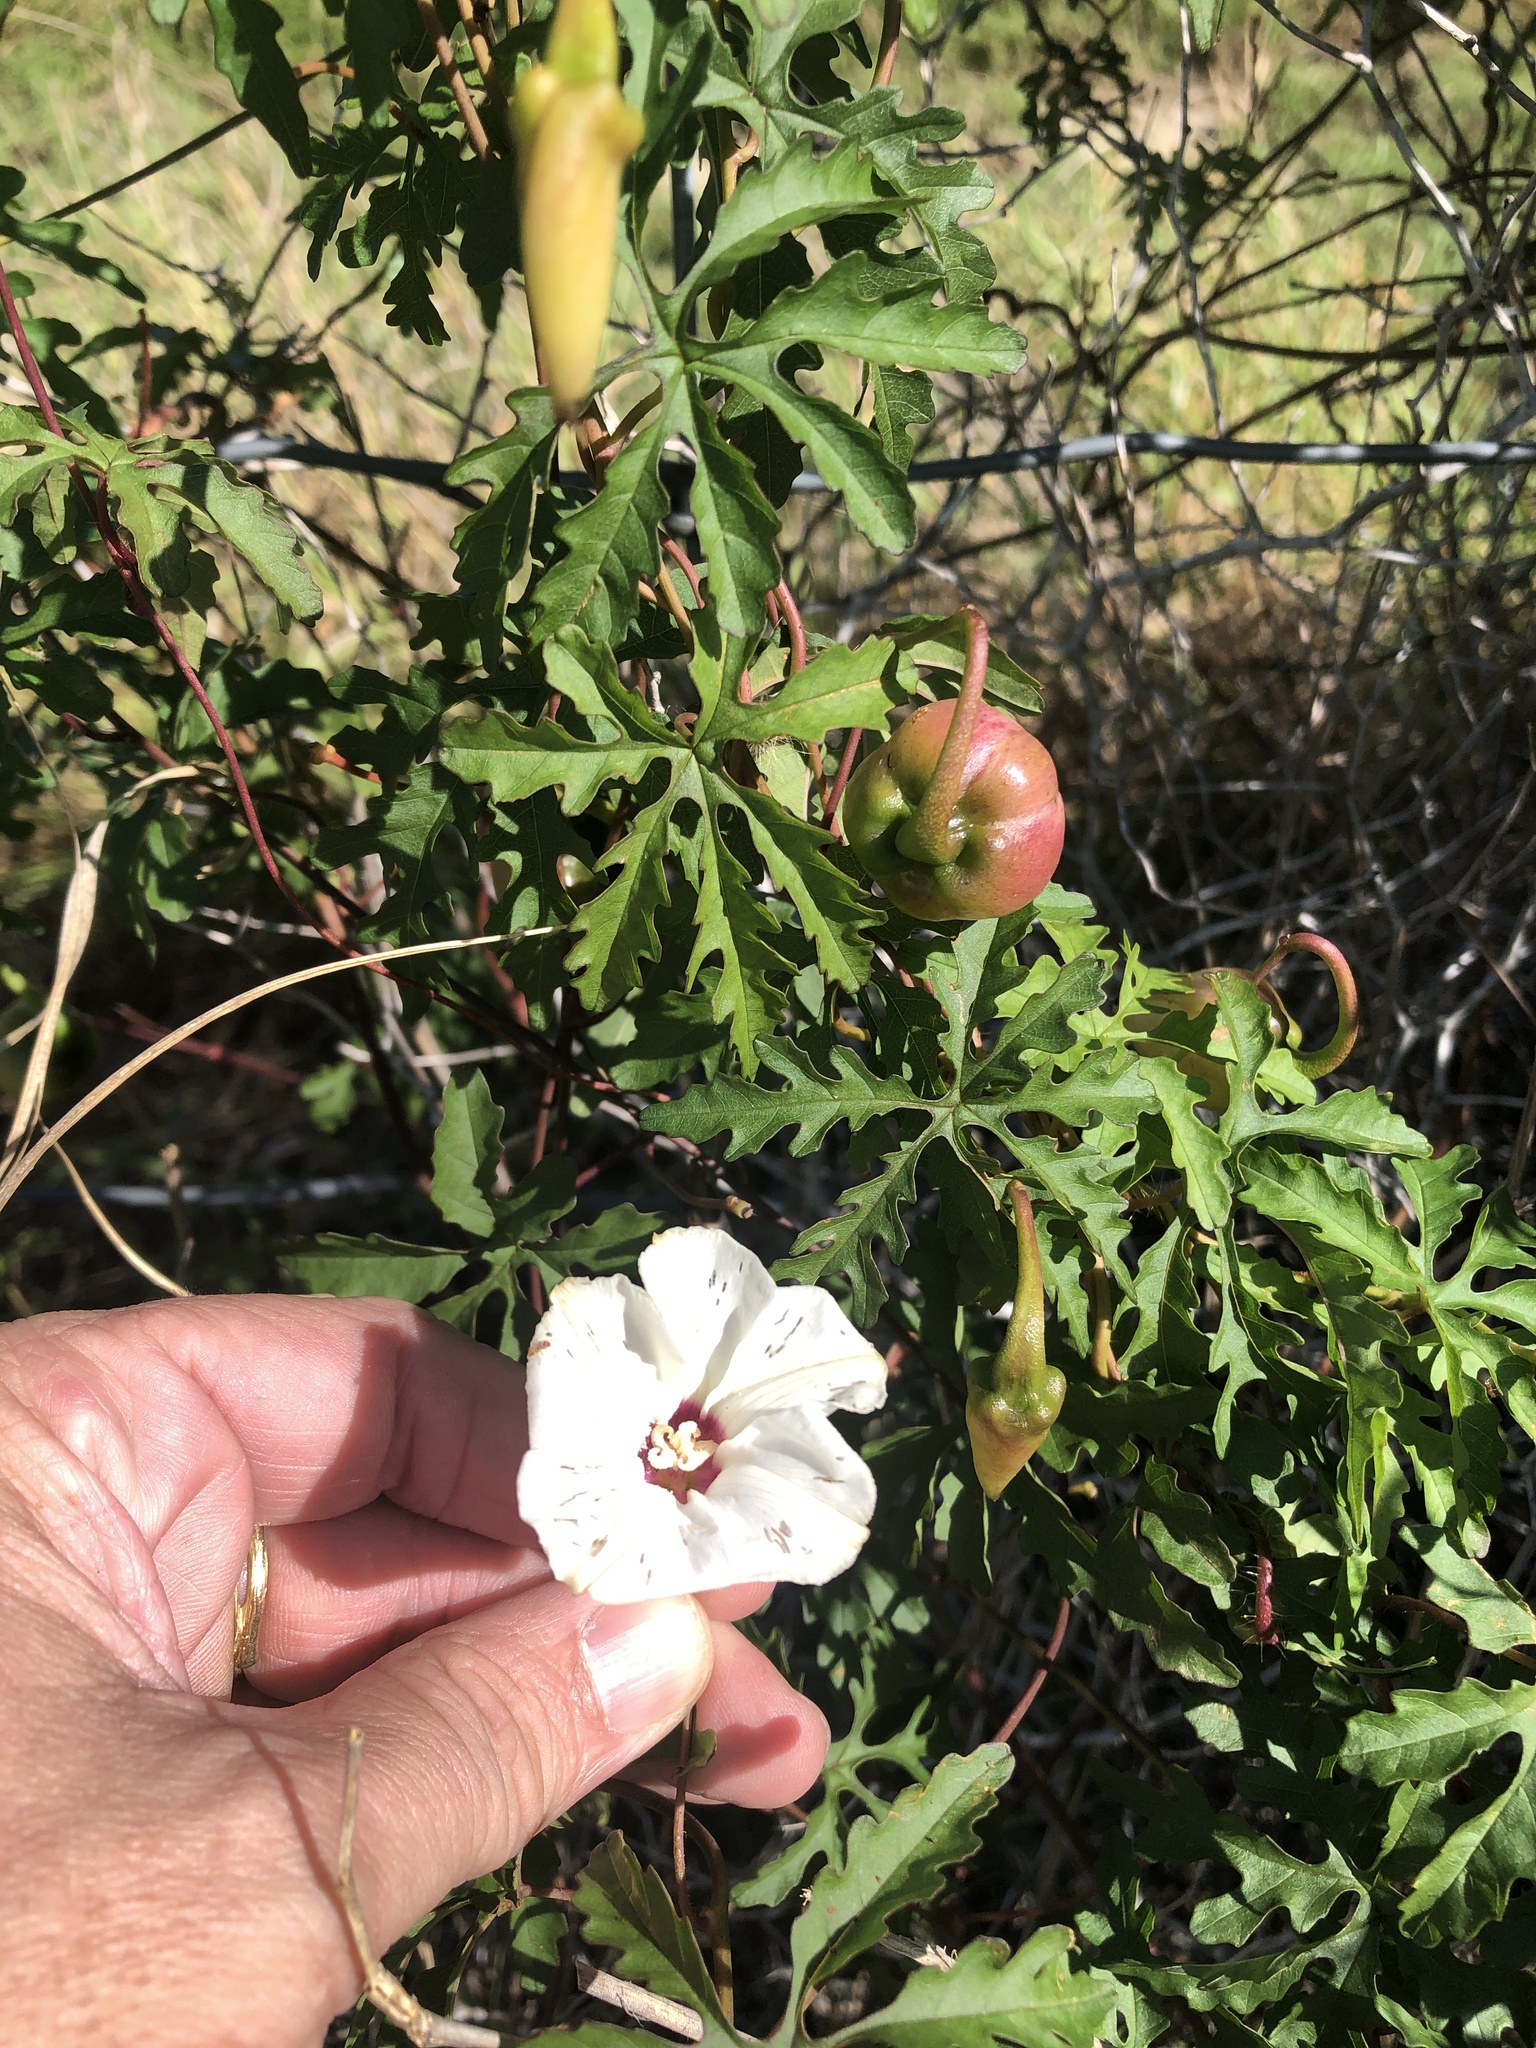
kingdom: Plantae
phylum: Tracheophyta
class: Magnoliopsida
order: Solanales
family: Convolvulaceae
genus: Distimake
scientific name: Distimake dissectus
